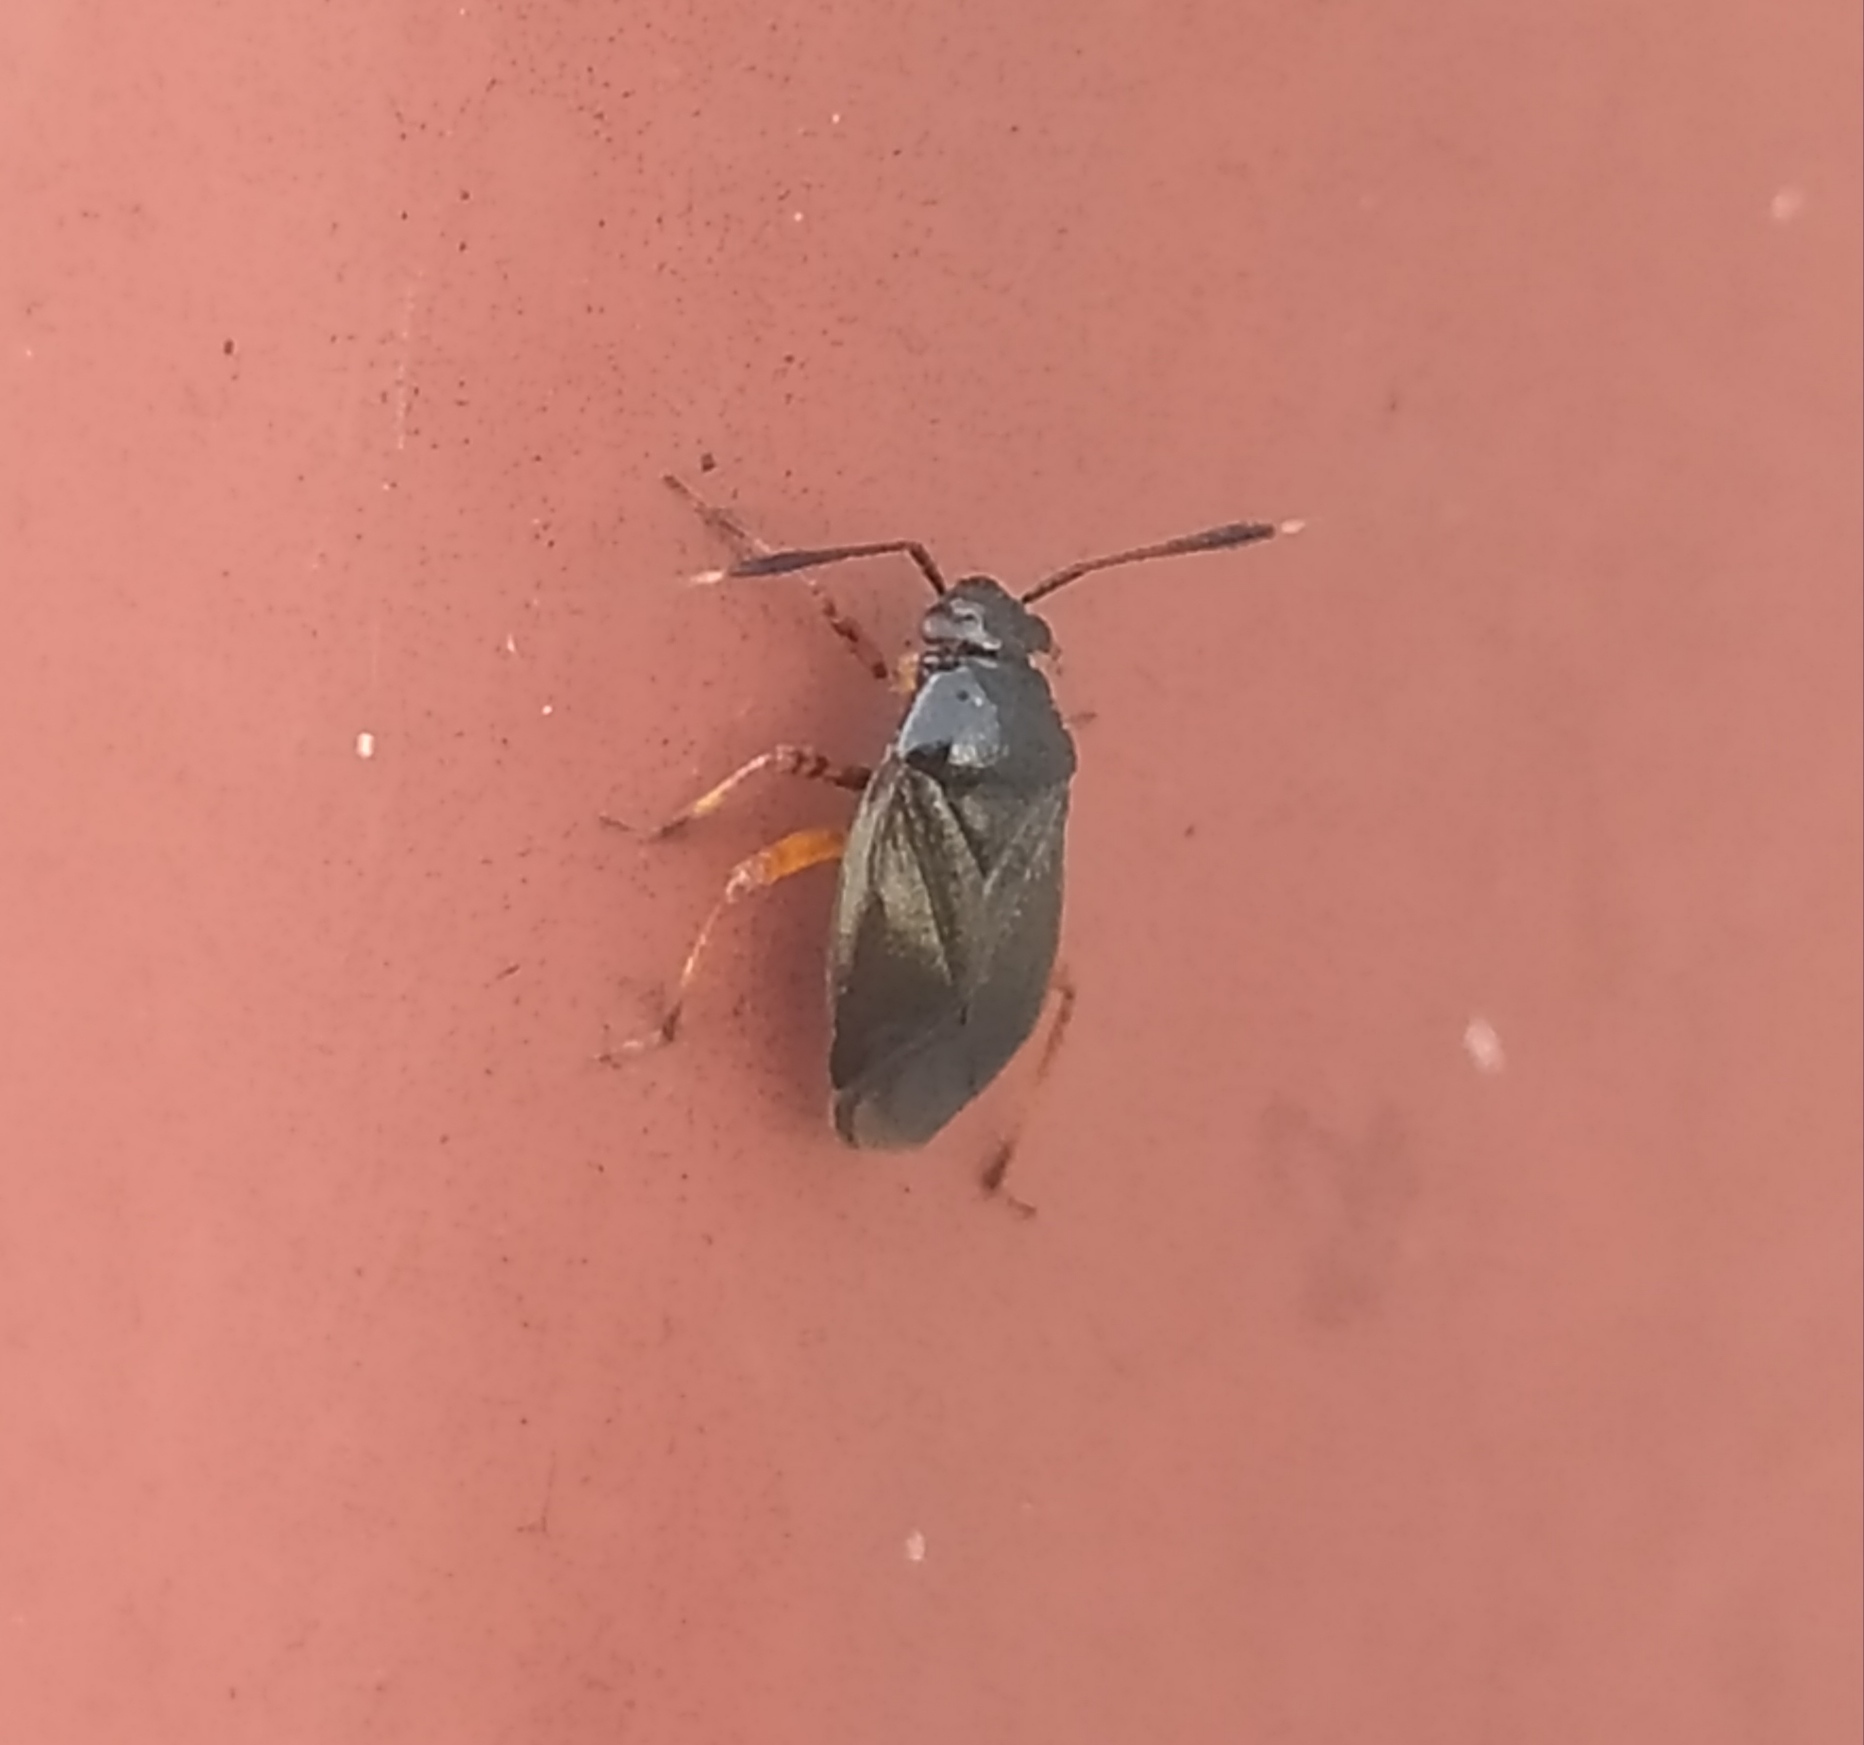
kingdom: Animalia
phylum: Arthropoda
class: Insecta
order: Hemiptera
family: Miridae
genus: Capsus
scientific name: Capsus ater
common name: Black plant bug
